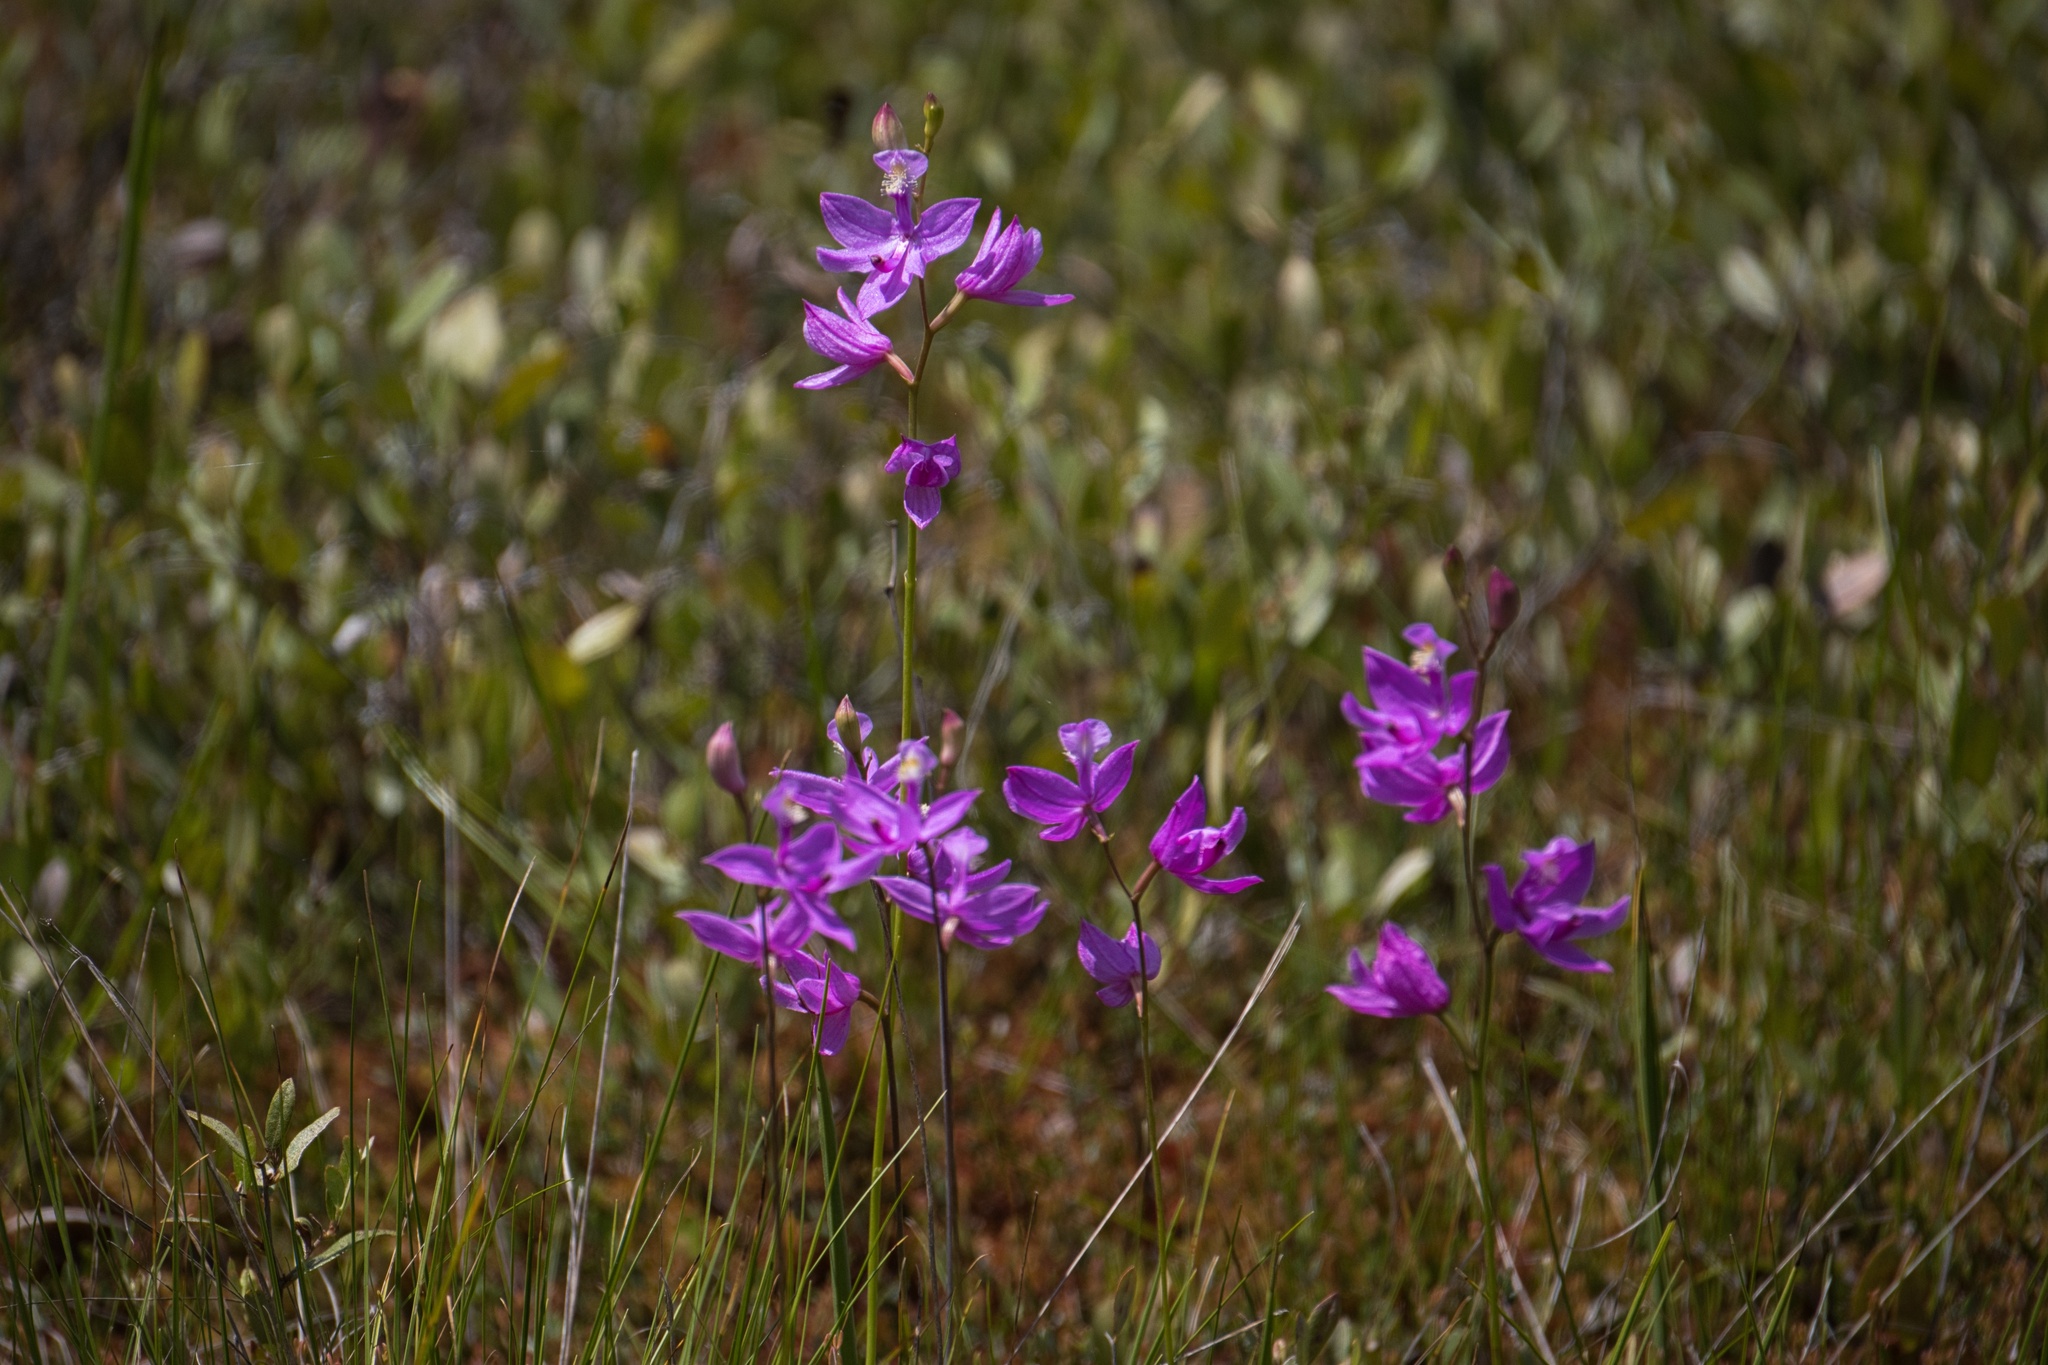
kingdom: Plantae
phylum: Tracheophyta
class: Liliopsida
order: Asparagales
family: Orchidaceae
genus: Calopogon
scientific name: Calopogon tuberosus
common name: Grass-pink
